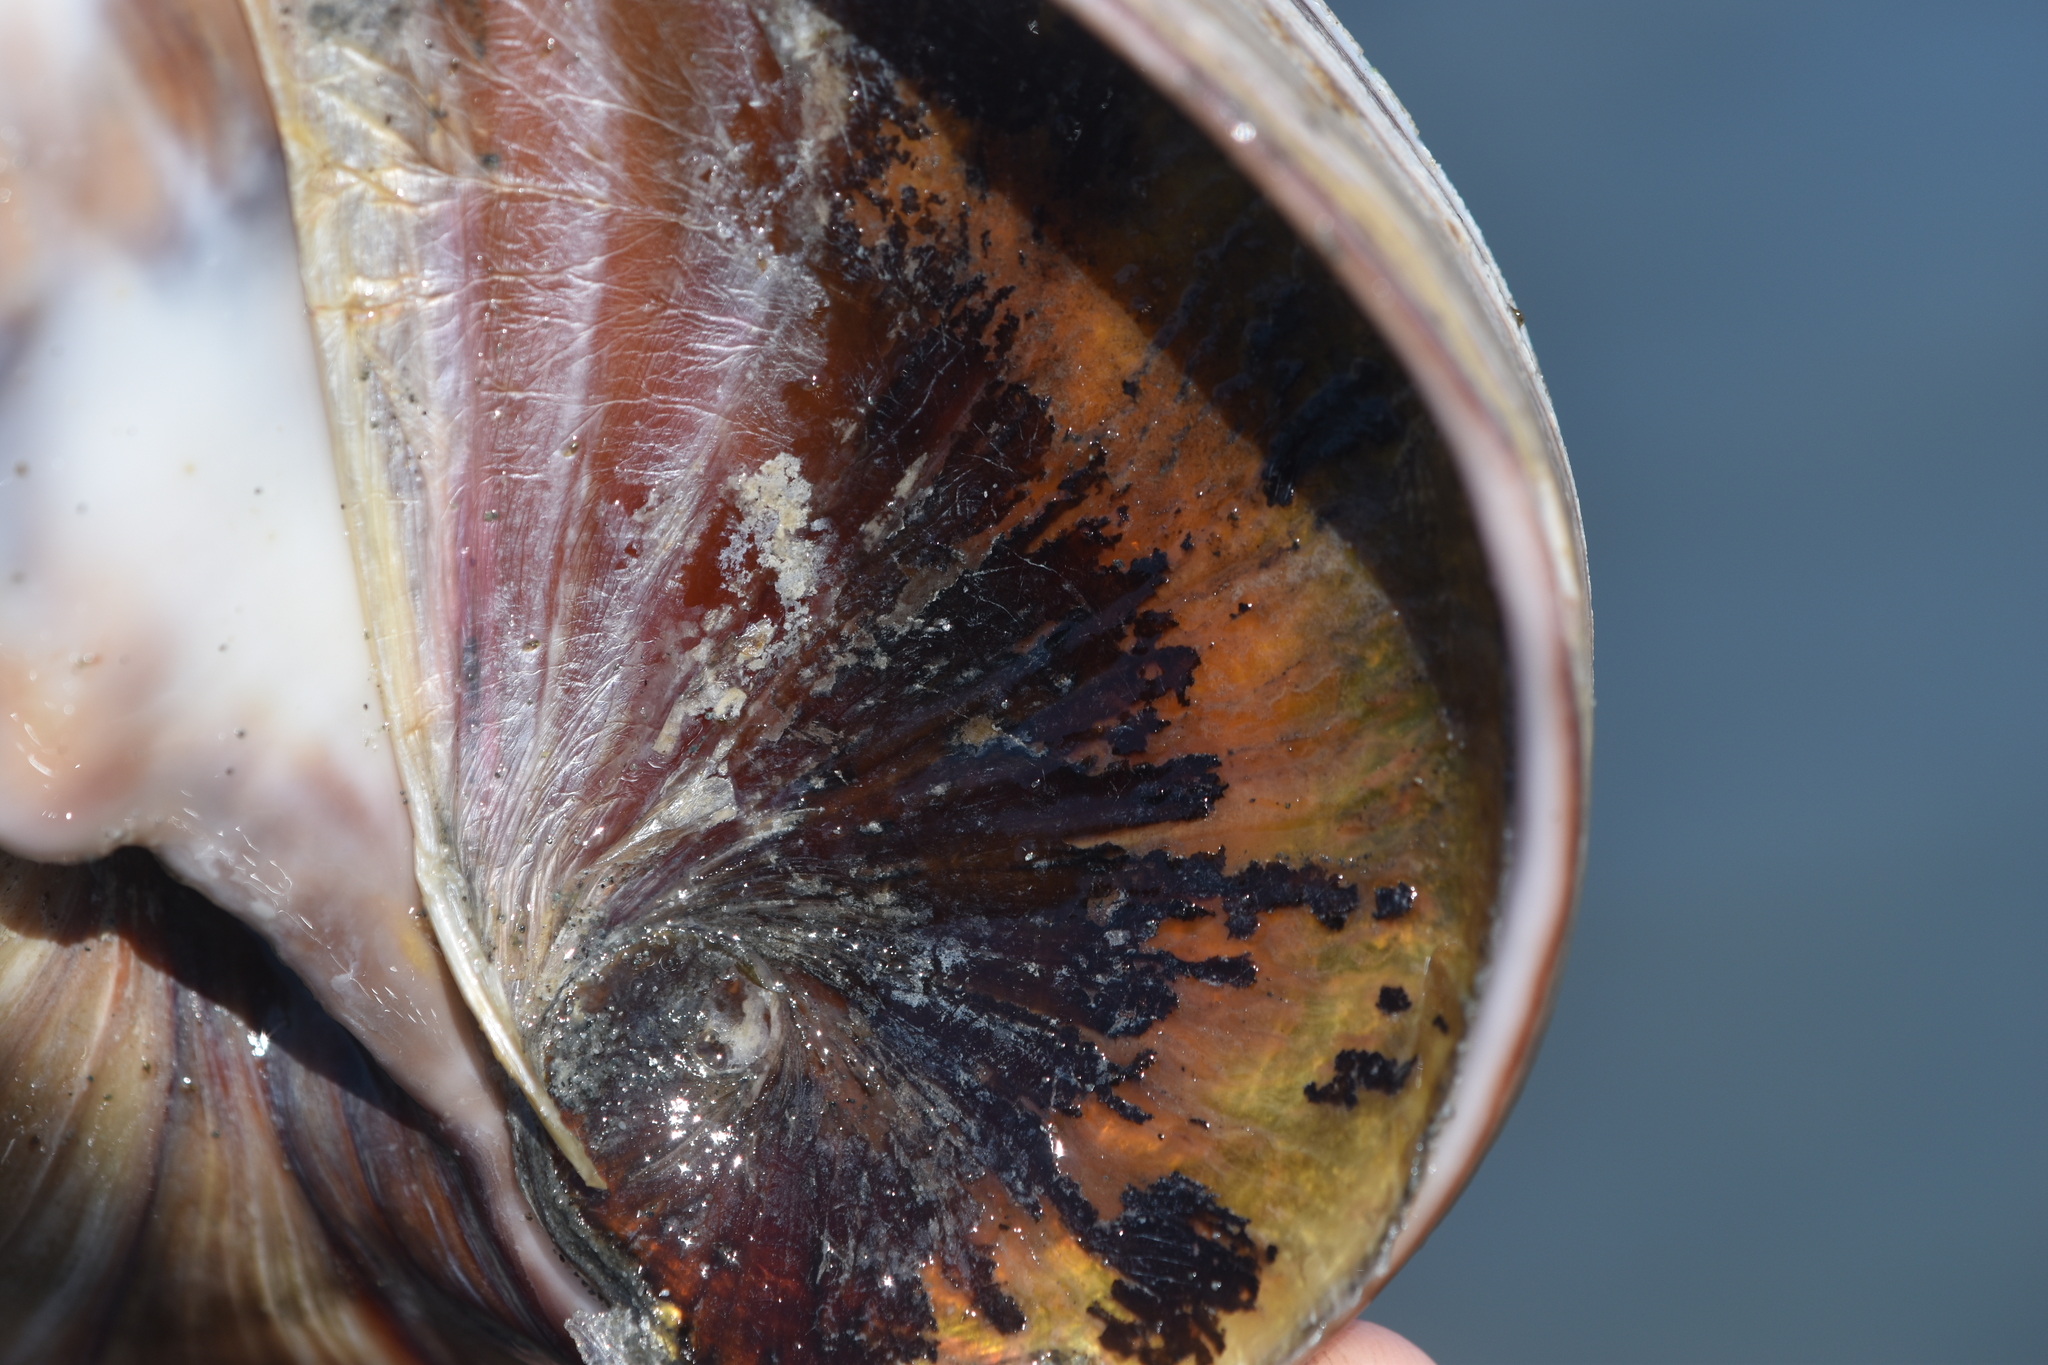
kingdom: Animalia
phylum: Mollusca
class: Gastropoda
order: Littorinimorpha
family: Naticidae
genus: Neverita
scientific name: Neverita lewisii
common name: Lewis' moonsnail
